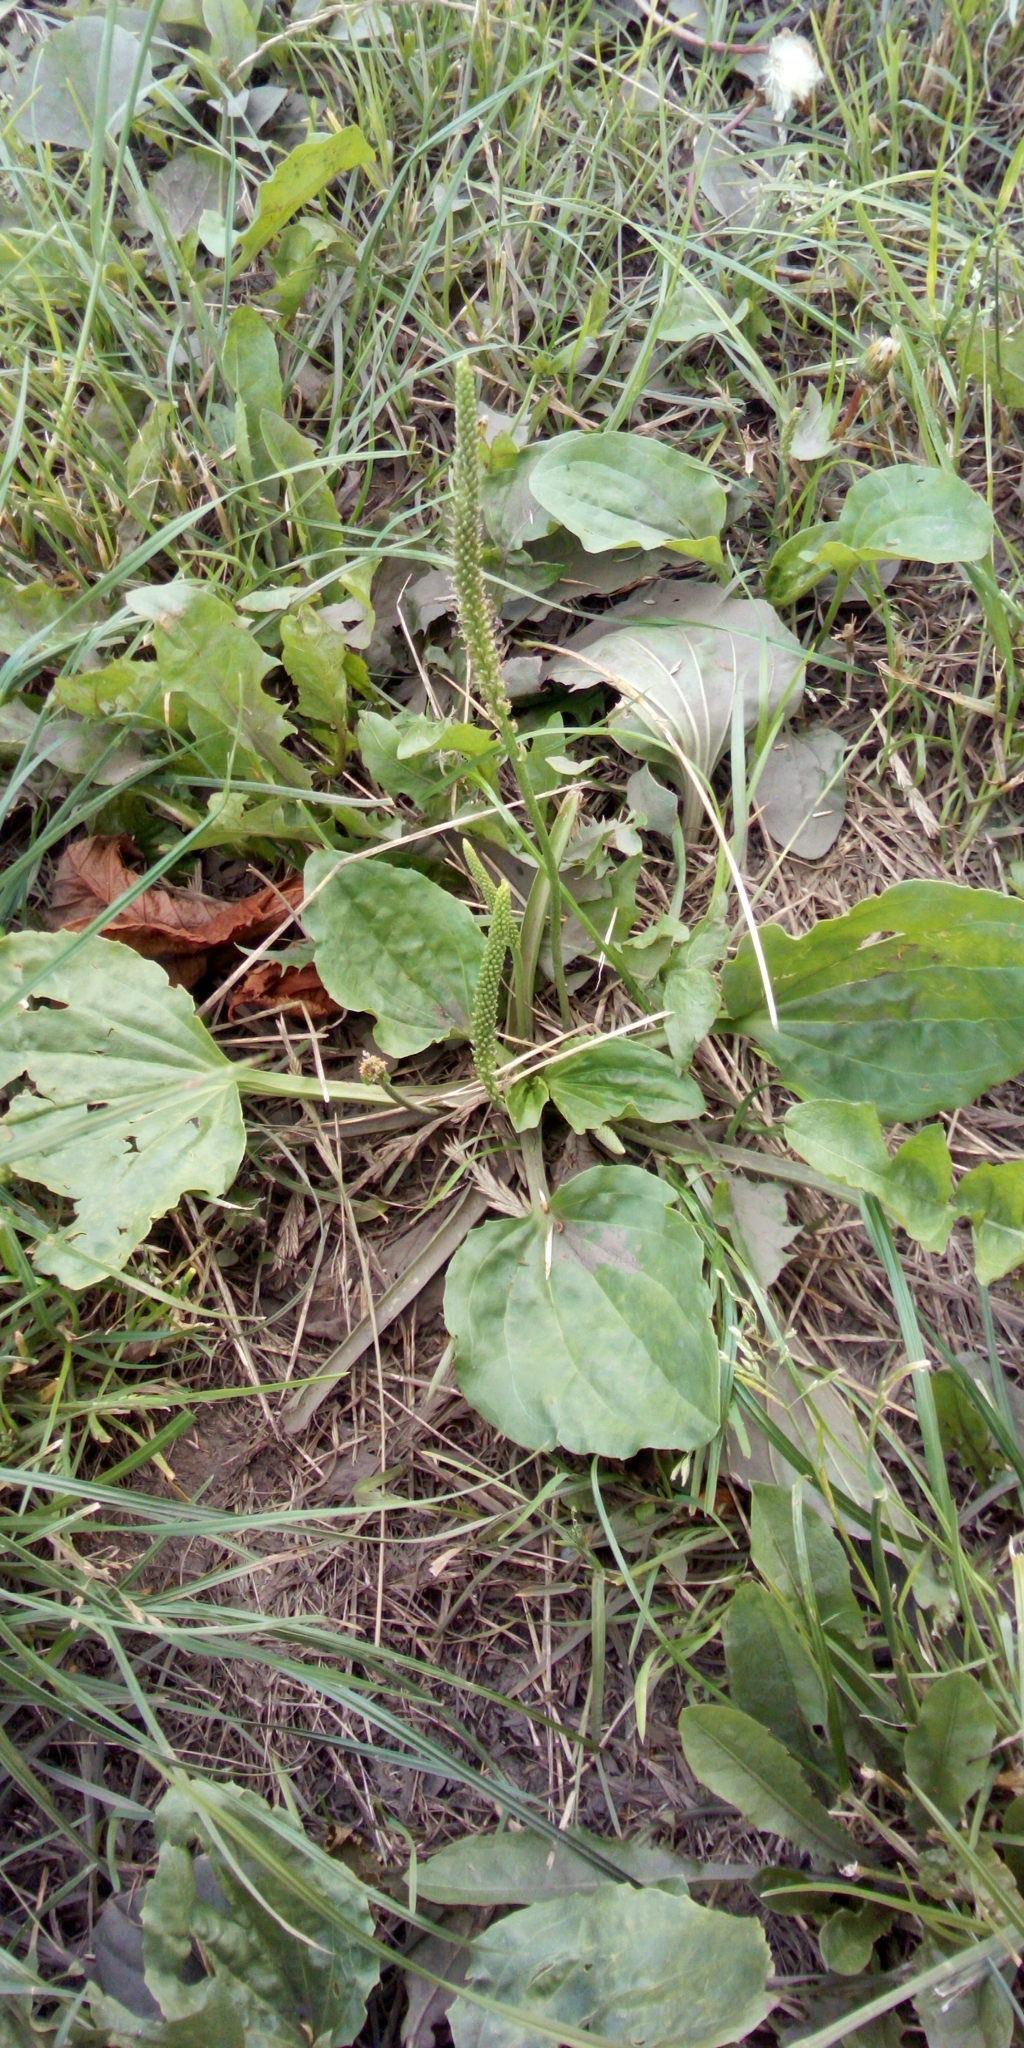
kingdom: Plantae
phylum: Tracheophyta
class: Magnoliopsida
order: Lamiales
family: Plantaginaceae
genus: Plantago
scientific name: Plantago major
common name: Common plantain
